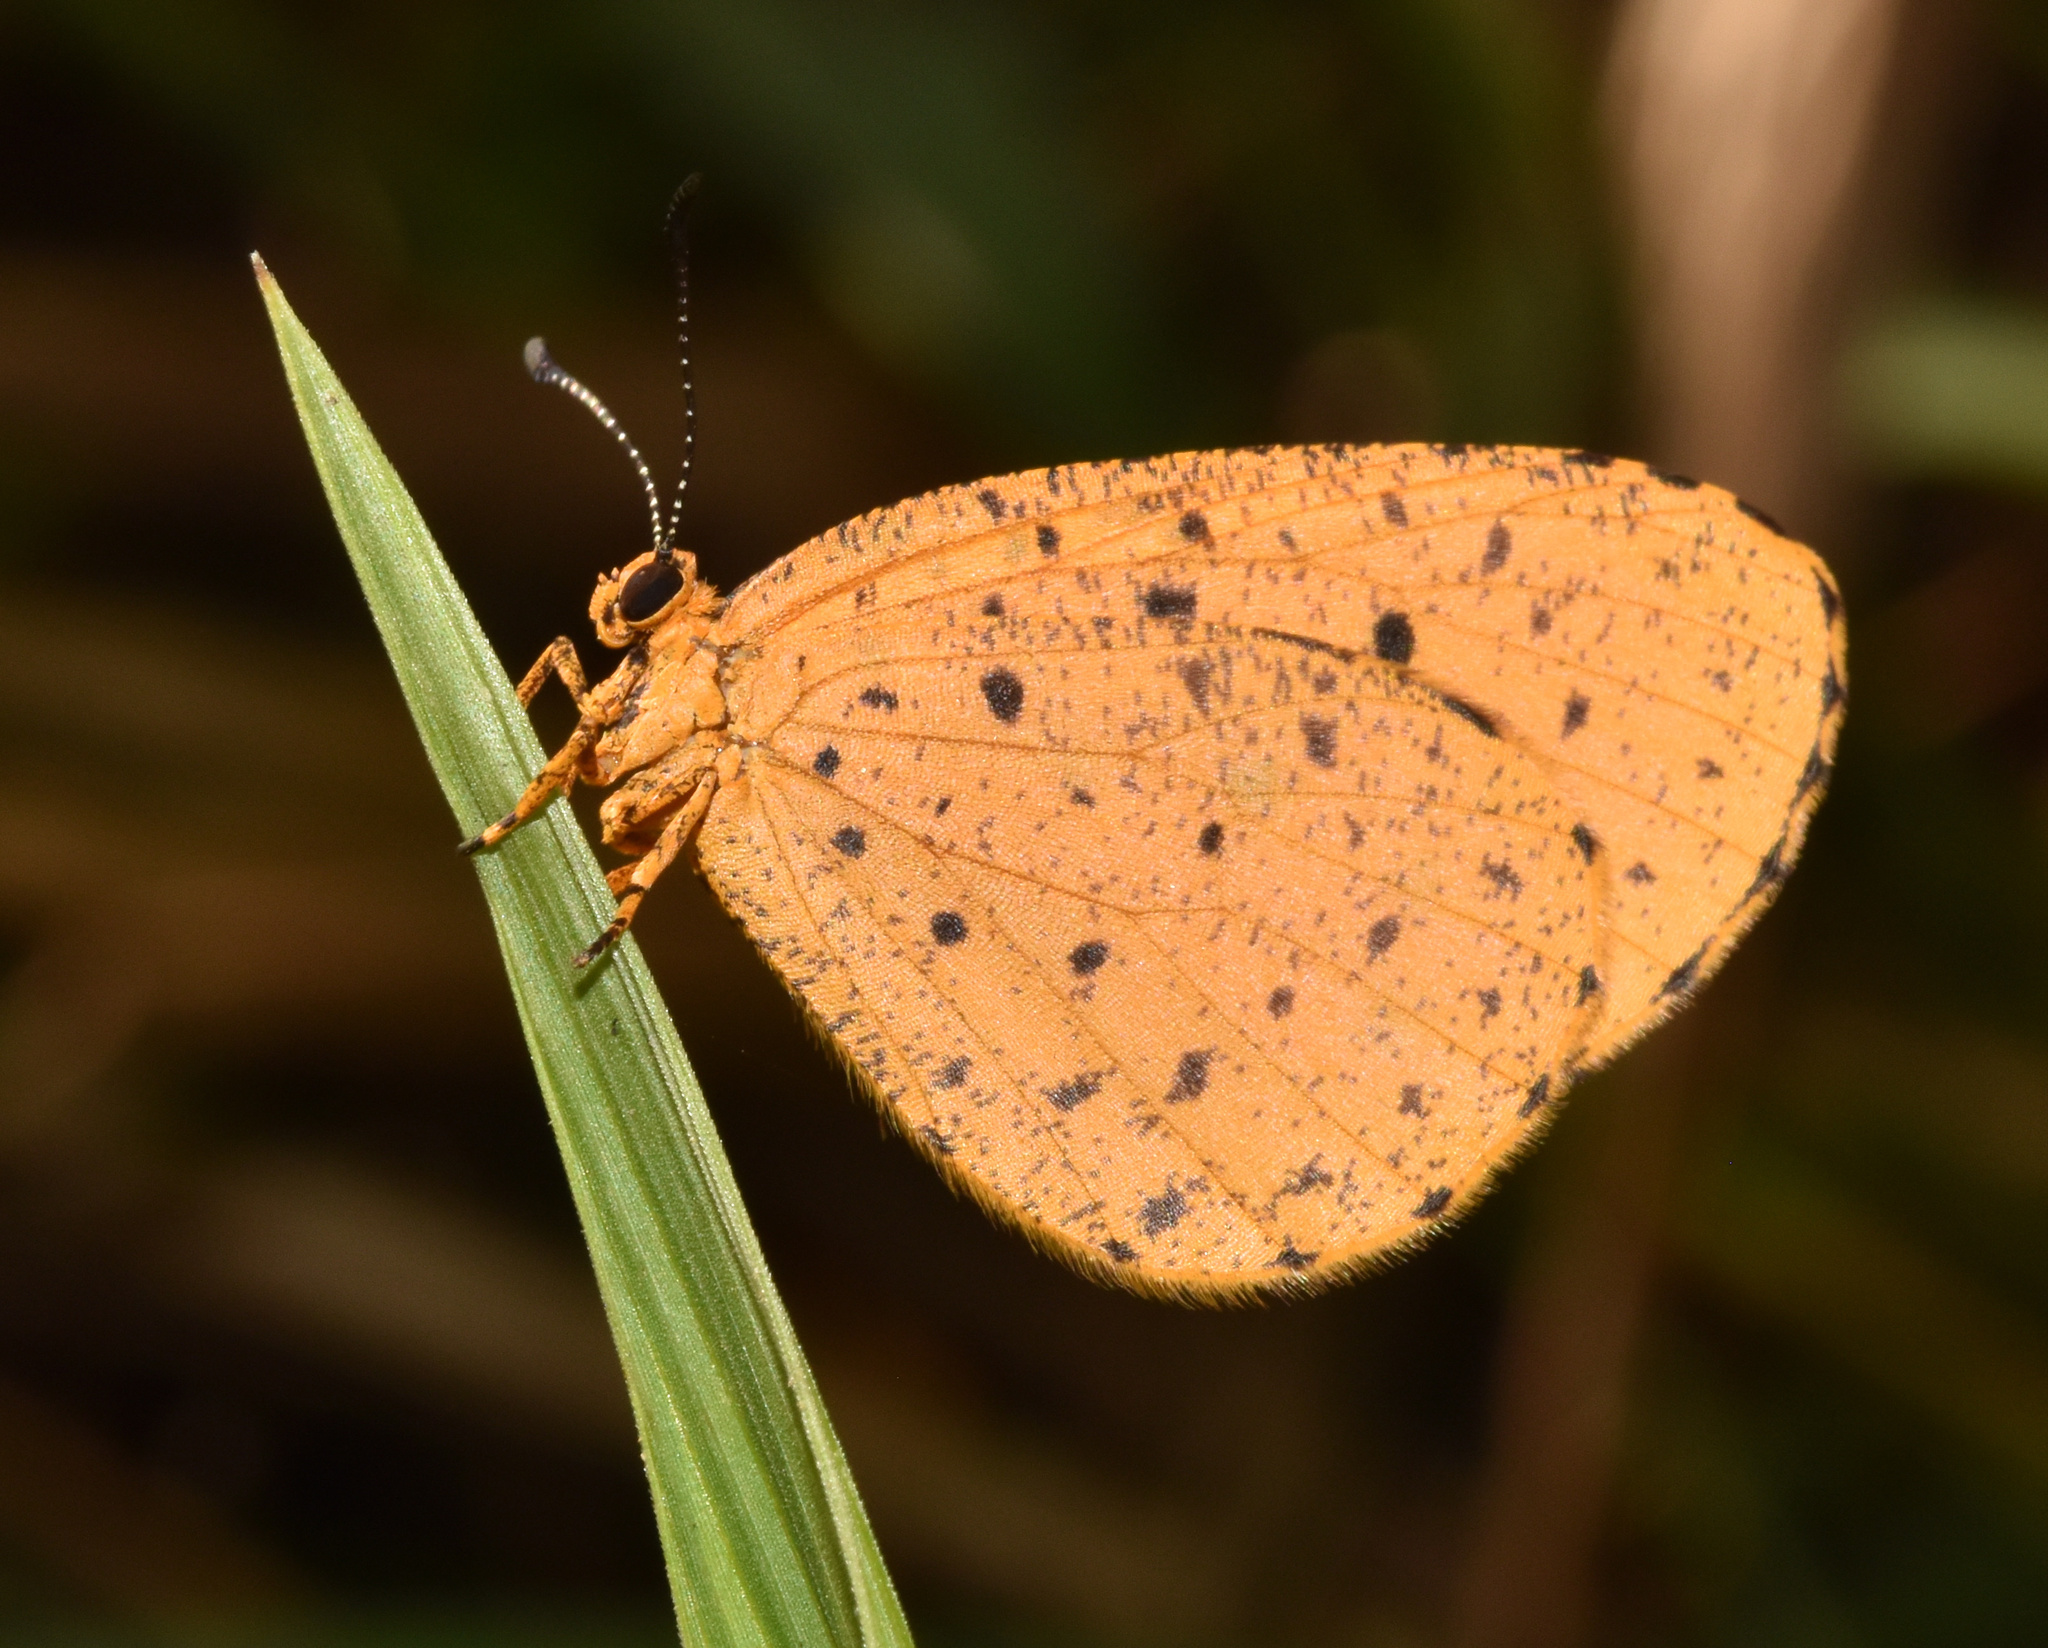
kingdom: Animalia
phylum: Arthropoda
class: Insecta
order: Lepidoptera
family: Lycaenidae
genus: Pentila
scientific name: Pentila tropicalis
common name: Spotted buff
